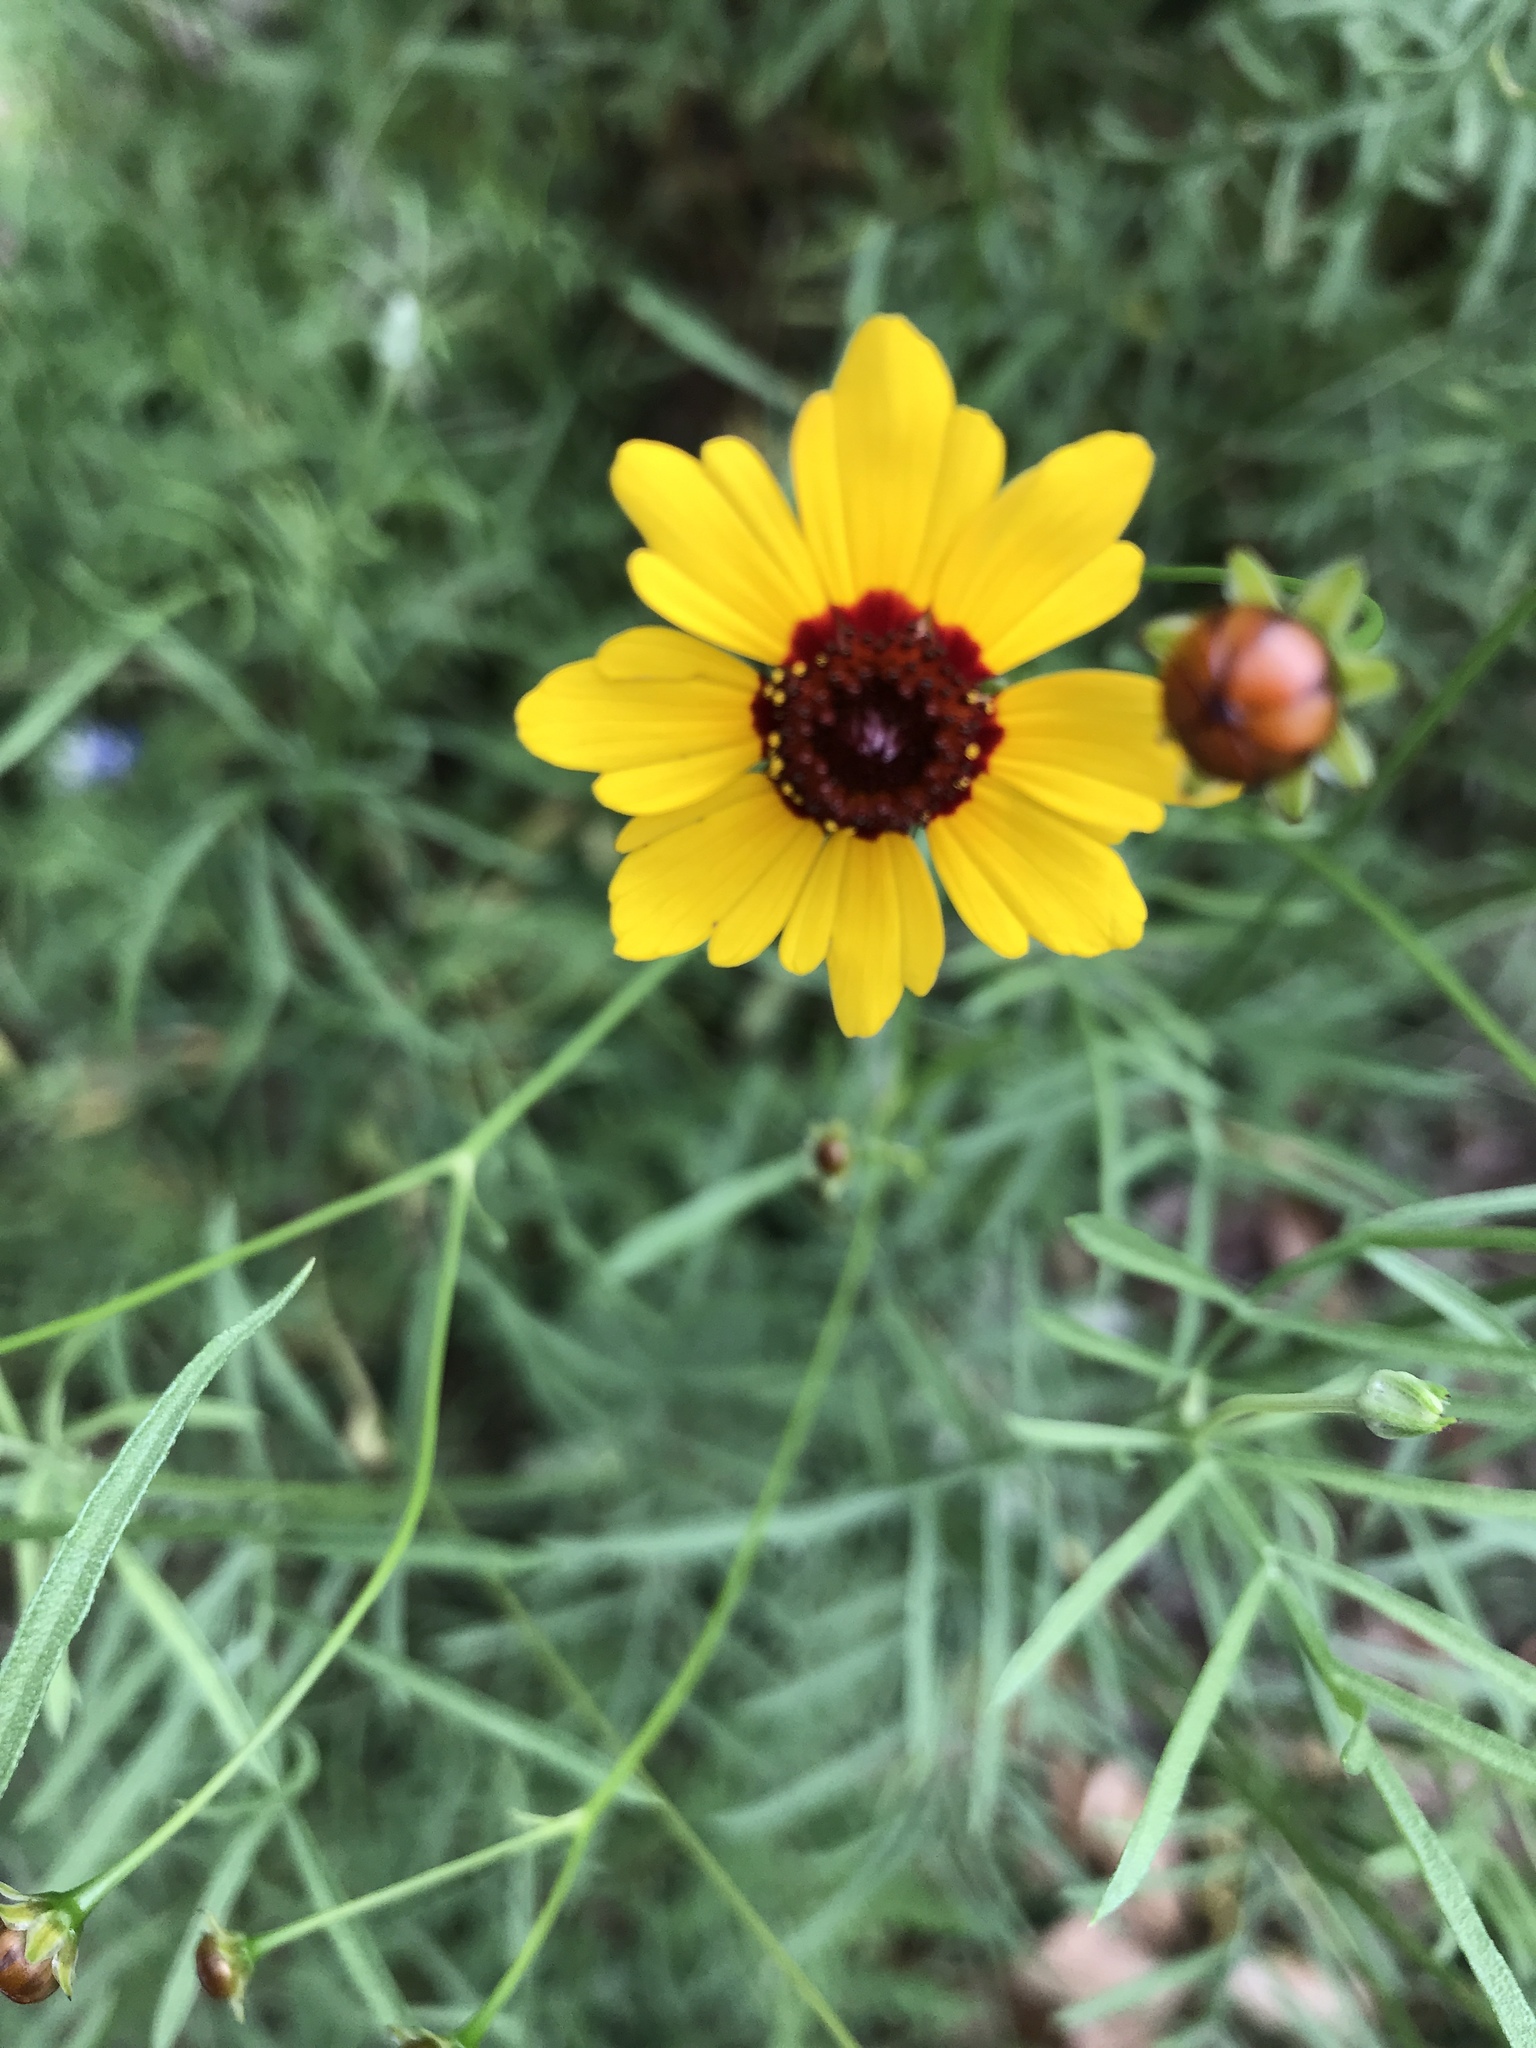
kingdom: Plantae
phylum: Tracheophyta
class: Magnoliopsida
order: Asterales
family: Asteraceae
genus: Thelesperma
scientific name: Thelesperma filifolium
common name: Stiff greenthread
